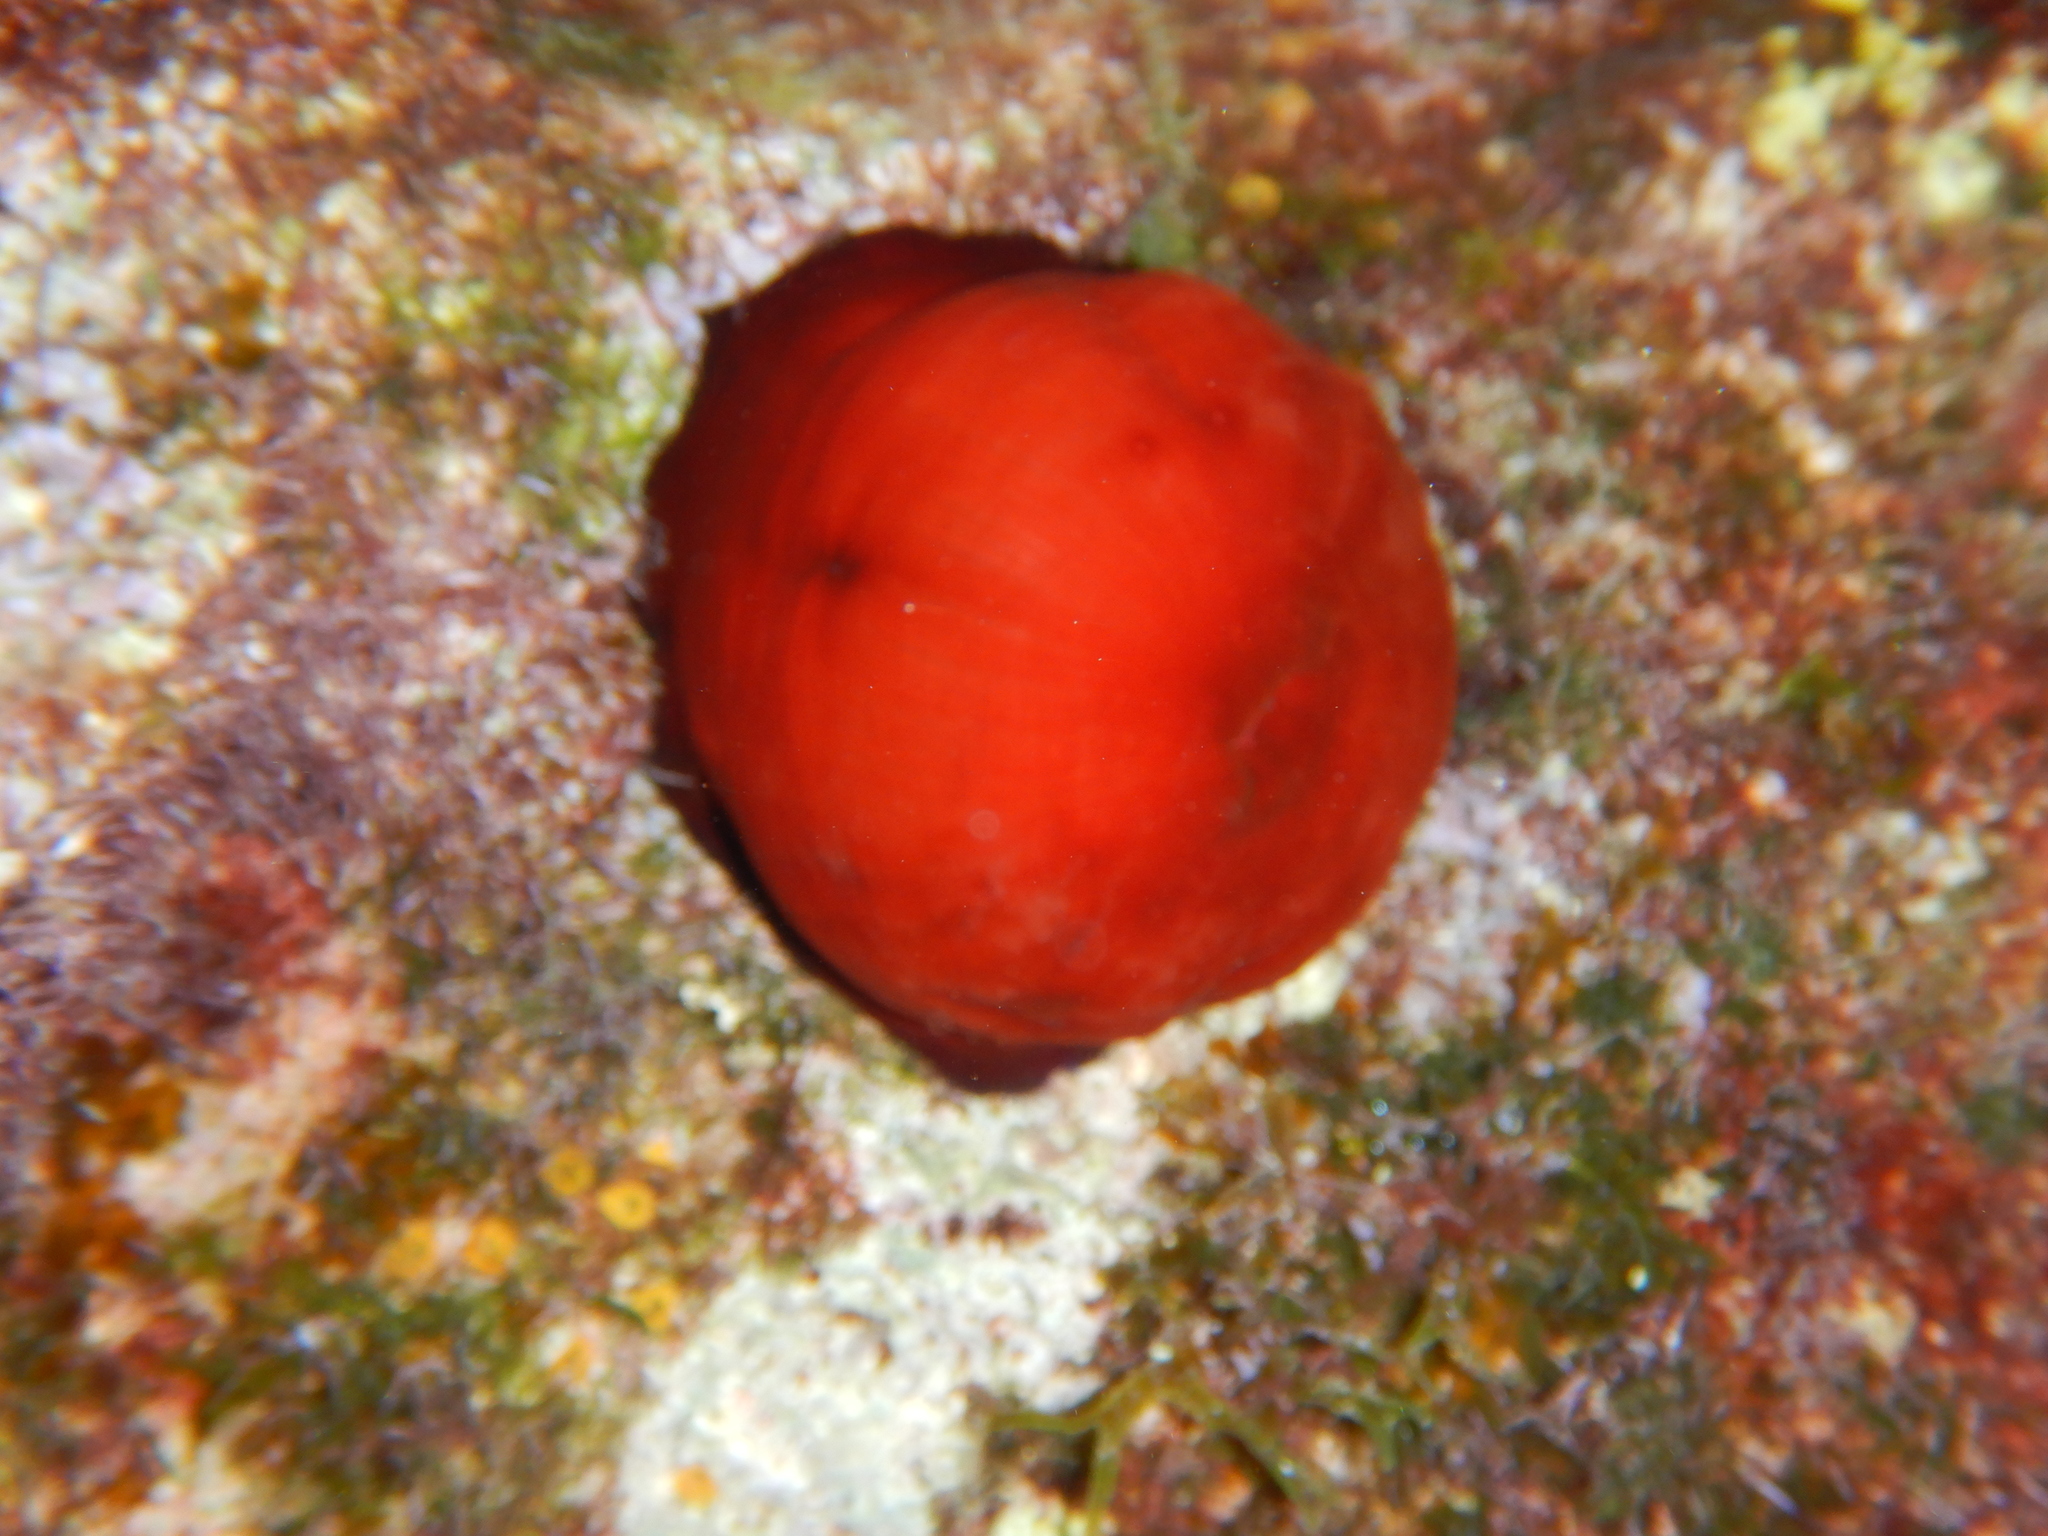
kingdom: Animalia
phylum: Cnidaria
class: Anthozoa
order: Actiniaria
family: Actiniidae
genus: Actinia
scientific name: Actinia mediterranea
